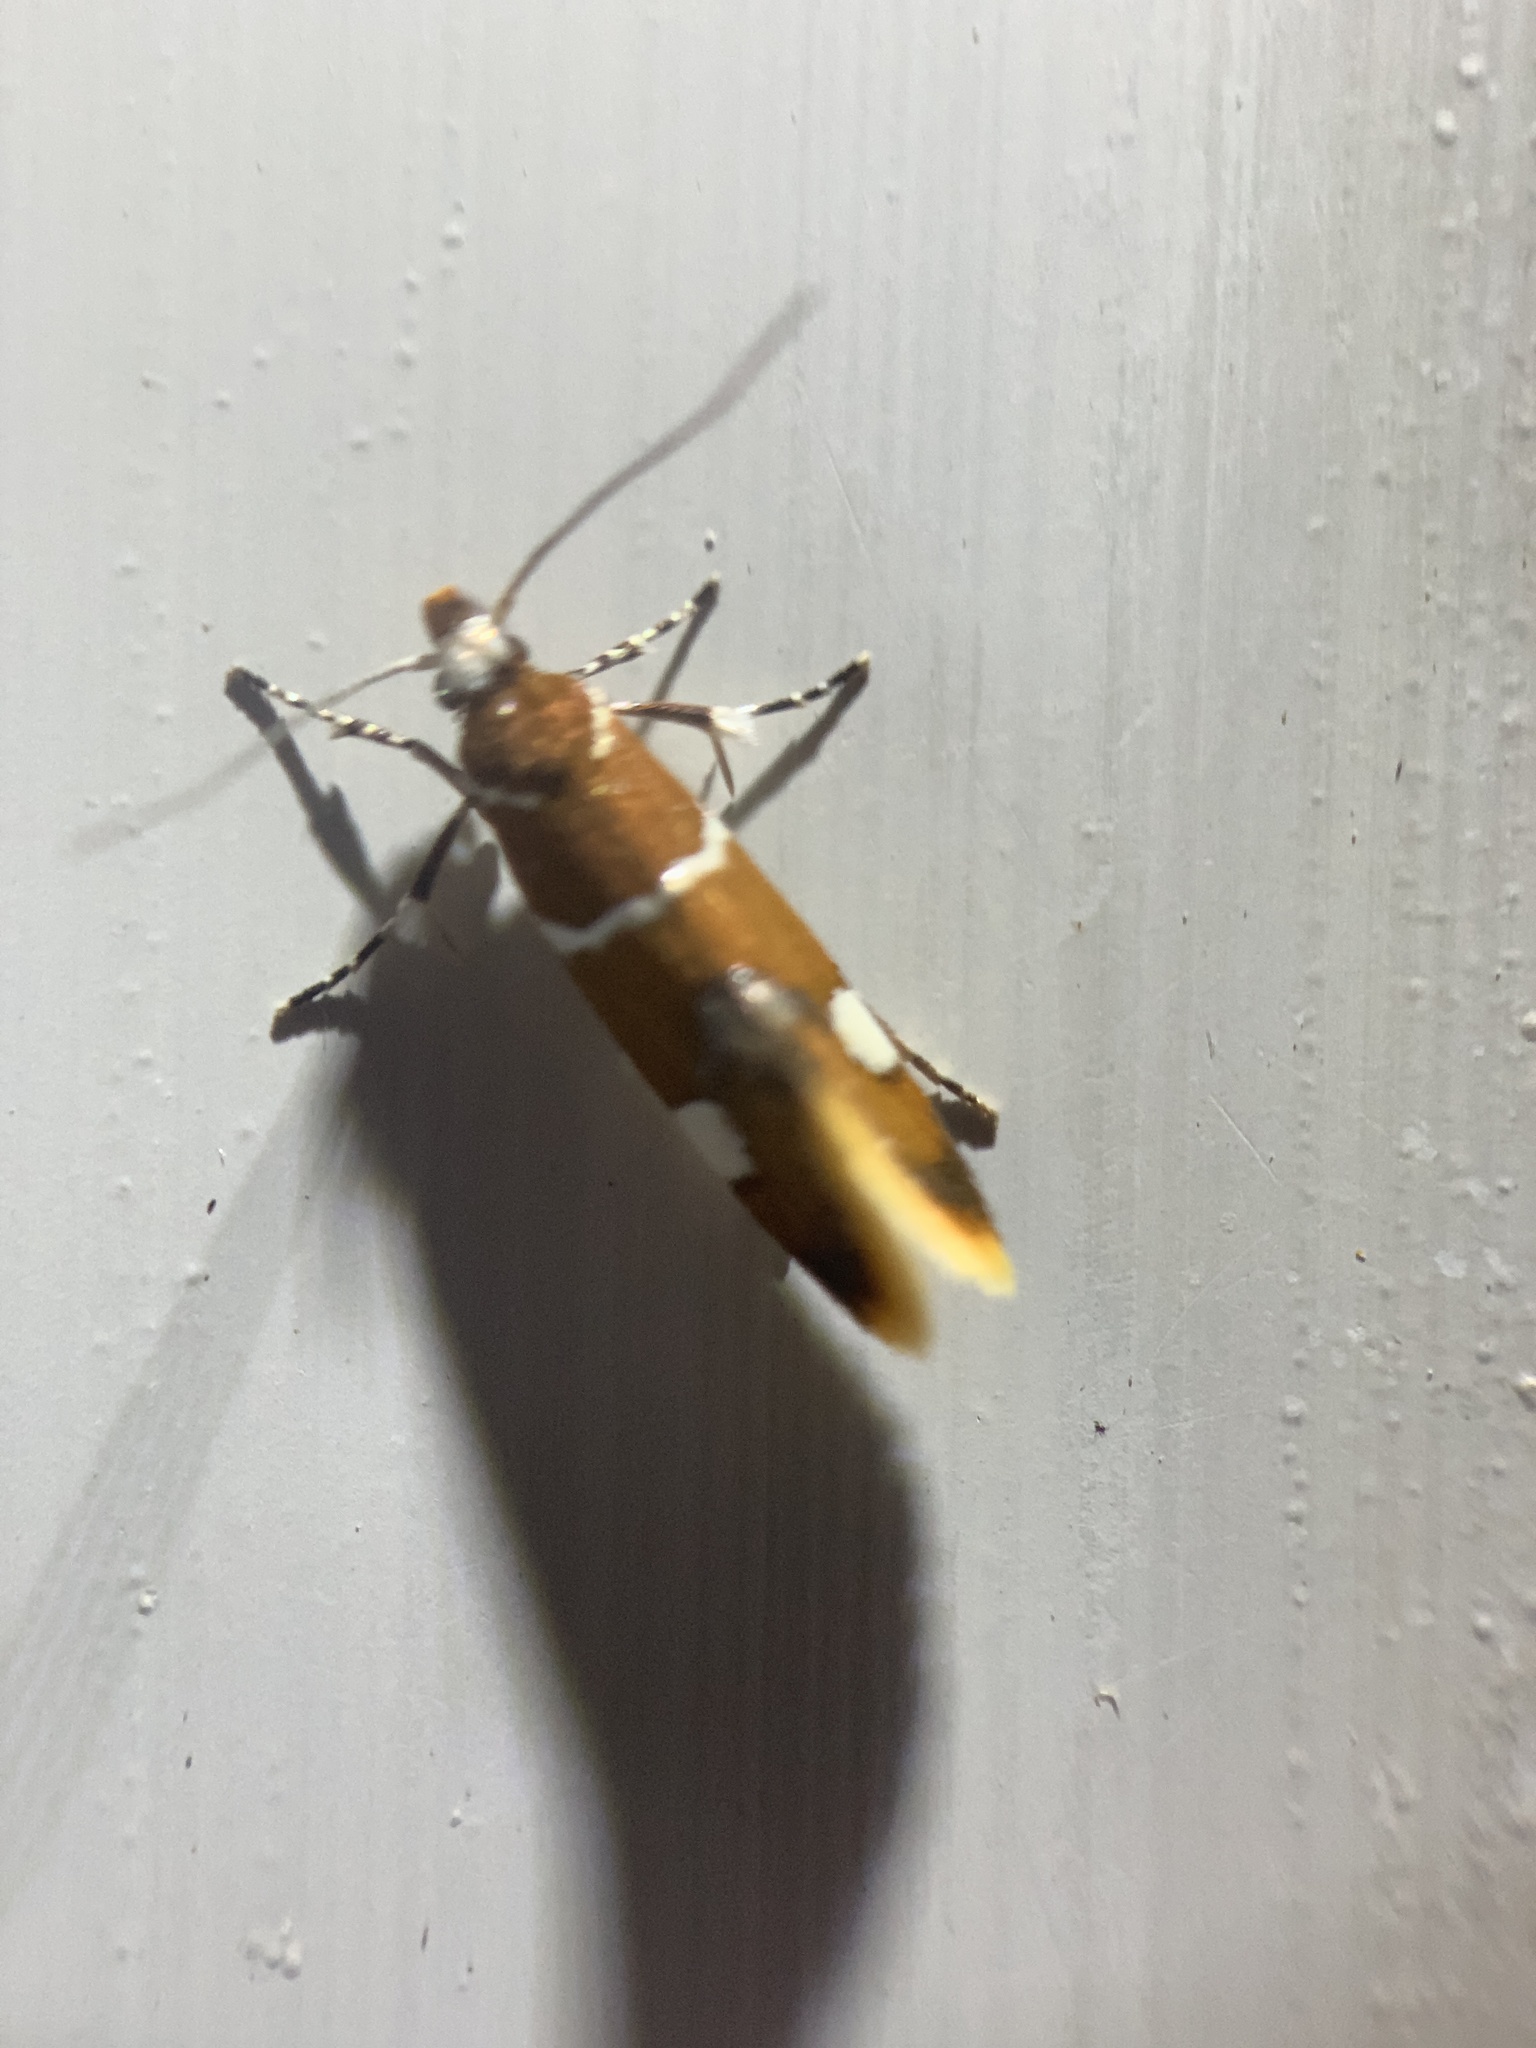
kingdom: Animalia
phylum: Arthropoda
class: Insecta
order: Lepidoptera
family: Oecophoridae
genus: Promalactis
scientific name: Promalactis suzukiella
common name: Moth
